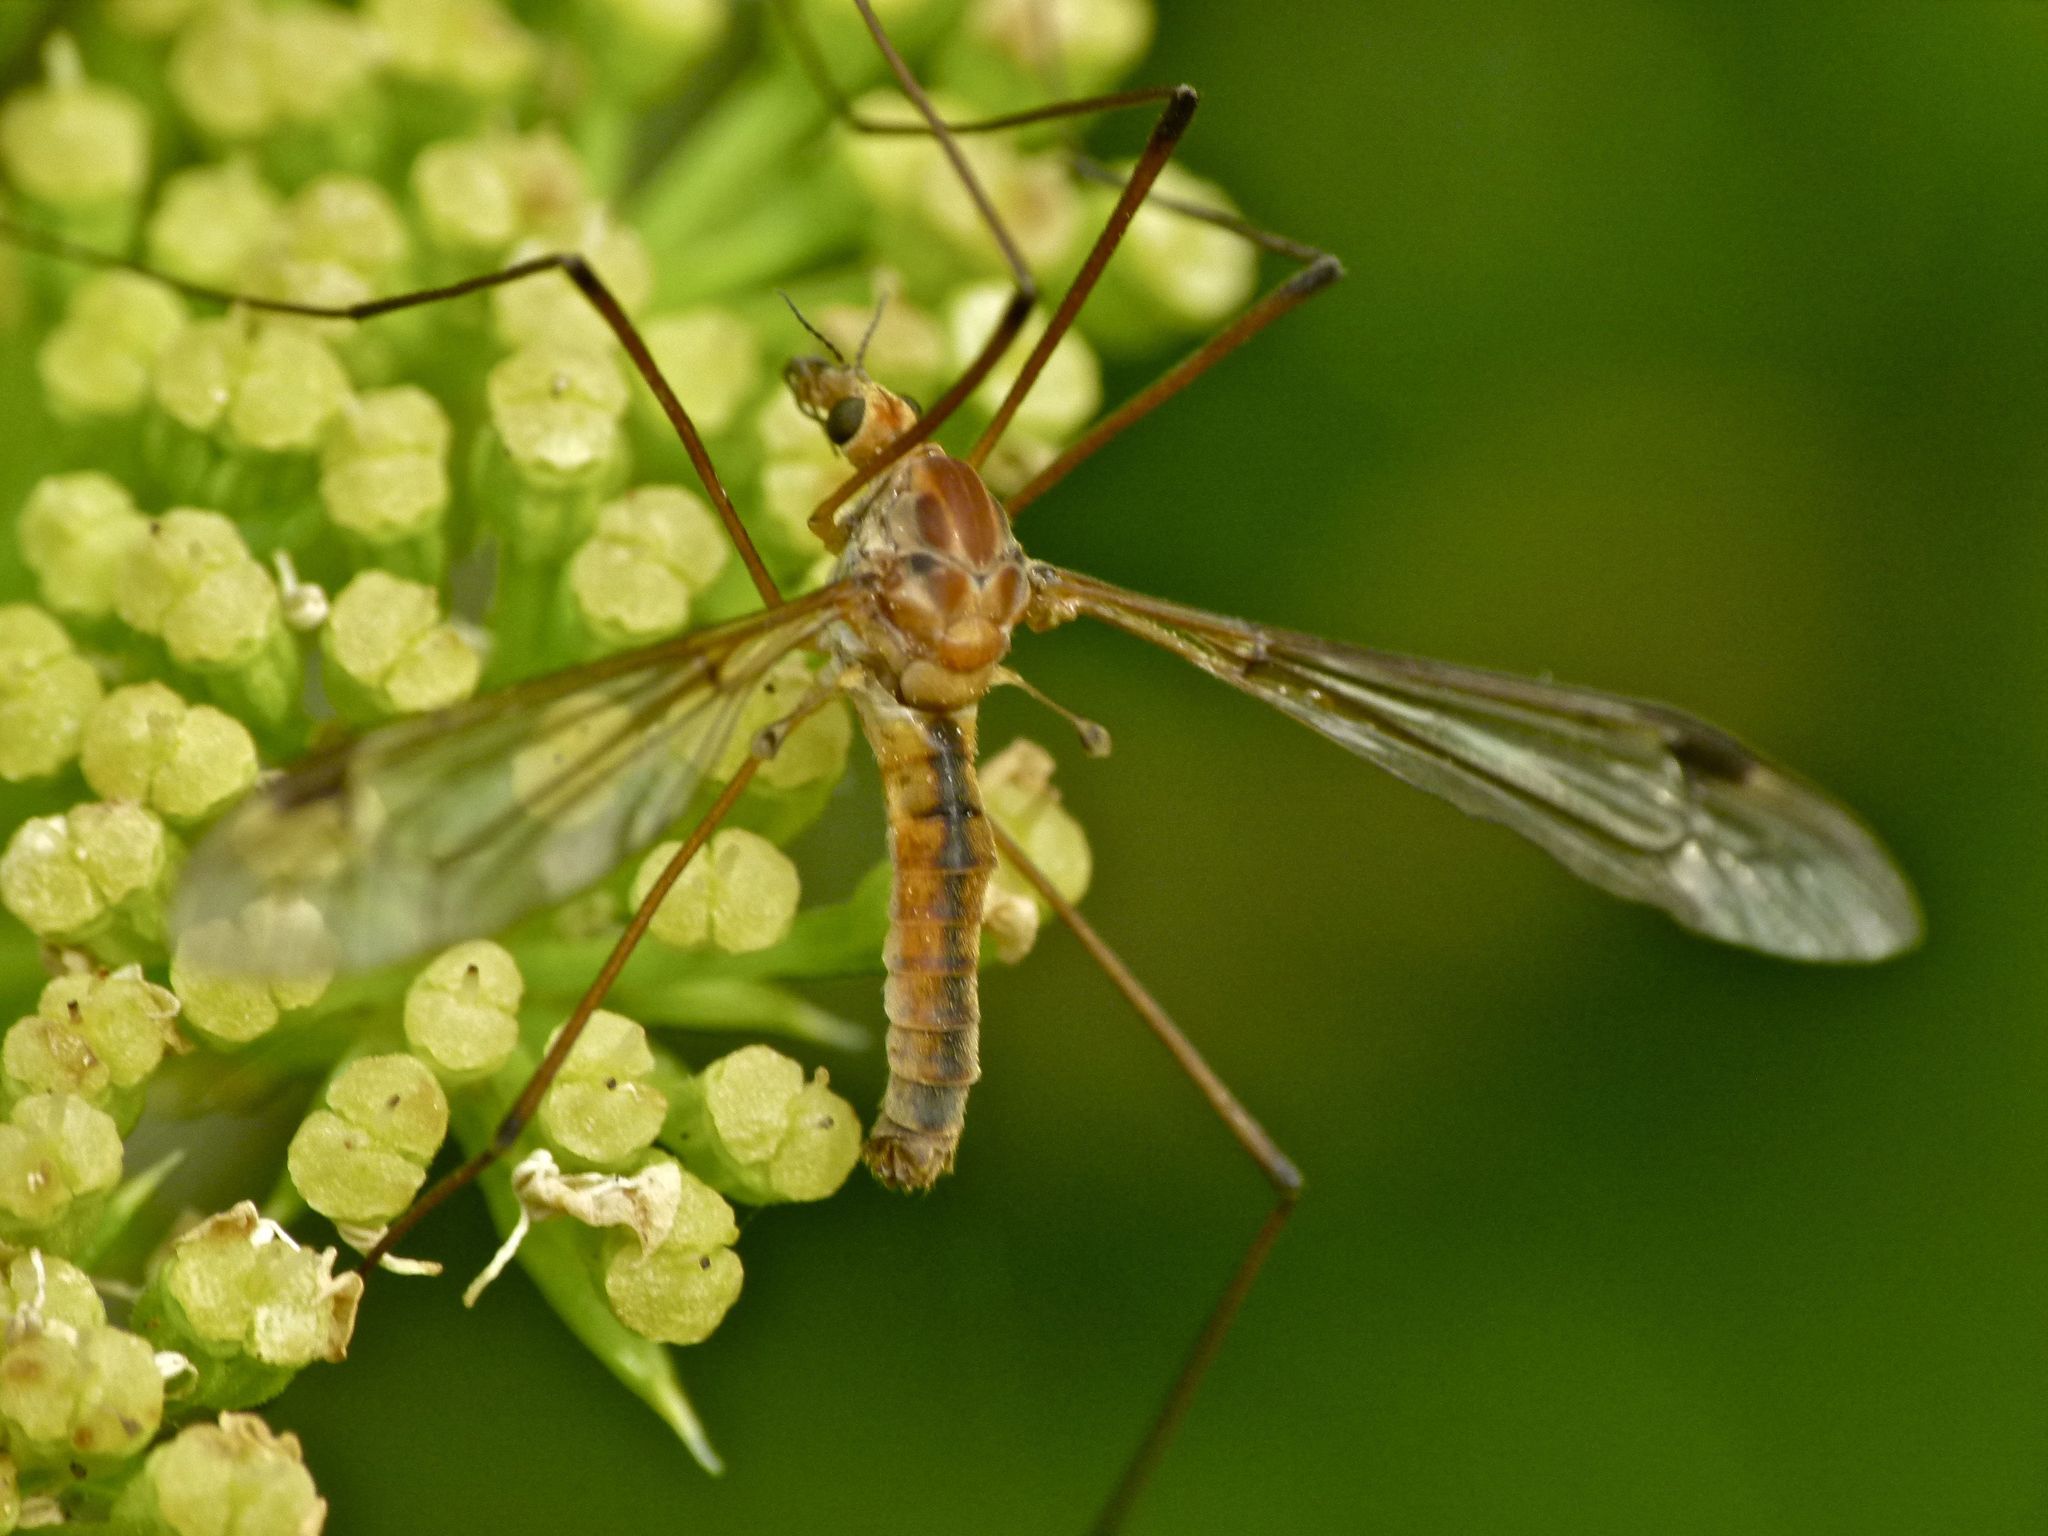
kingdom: Animalia
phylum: Arthropoda
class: Insecta
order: Diptera
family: Tipulidae
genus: Leptotarsus
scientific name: Leptotarsus dichroithorax
